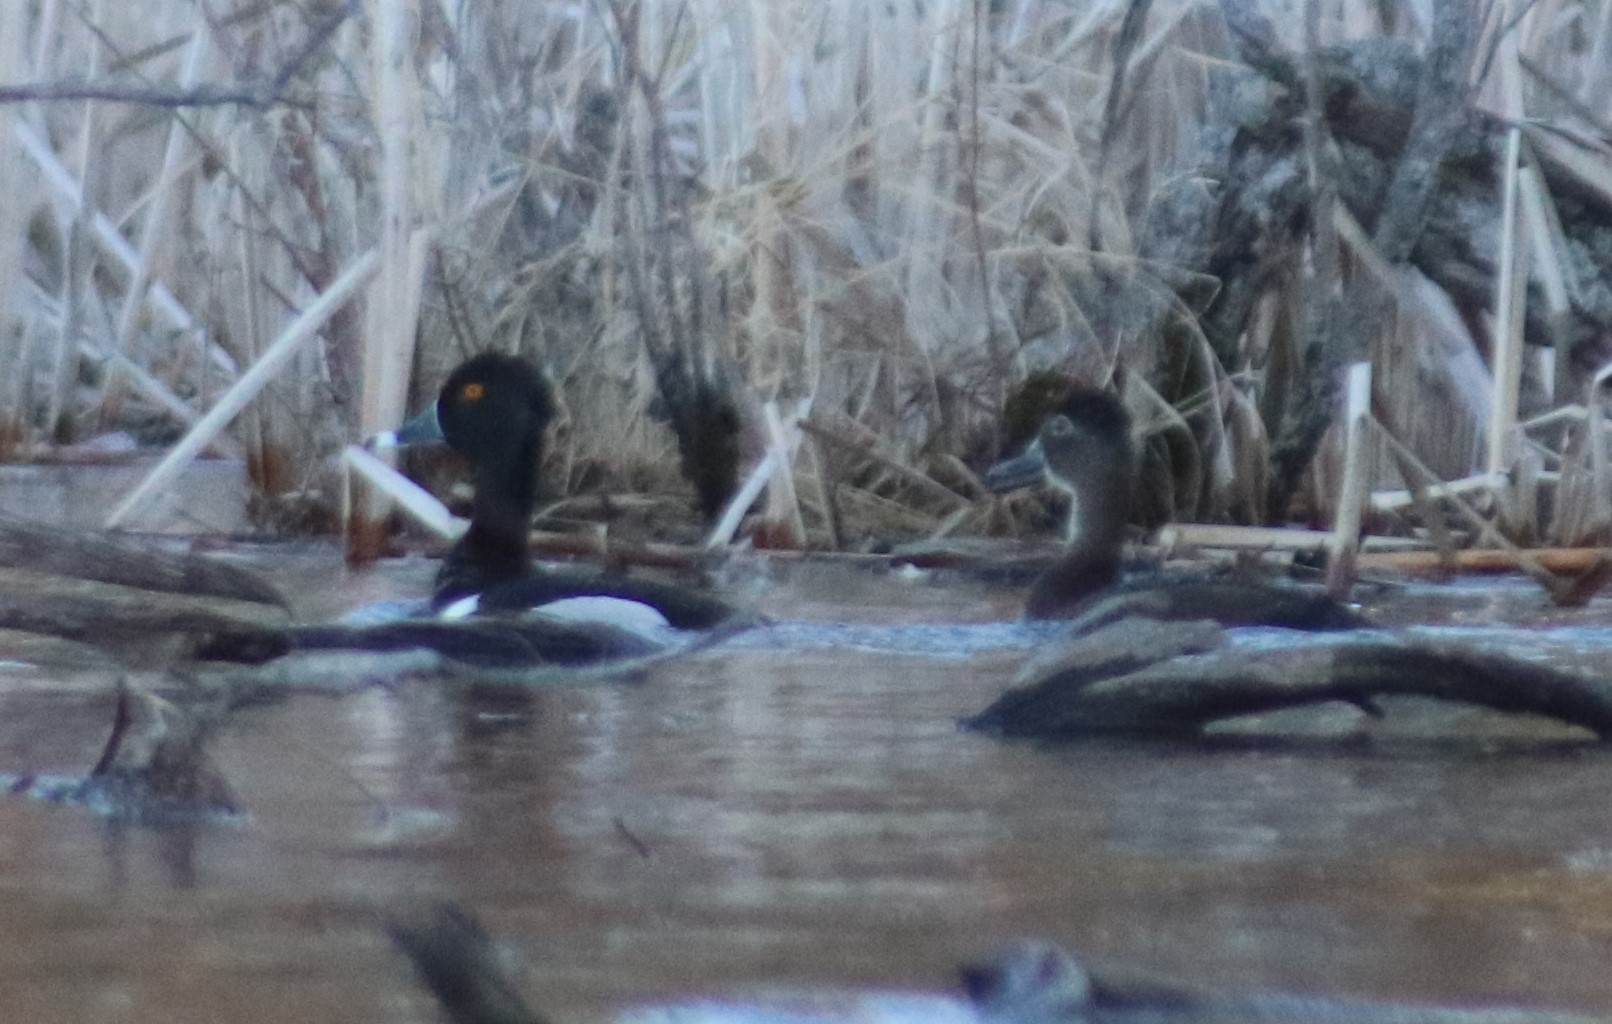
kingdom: Animalia
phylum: Chordata
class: Aves
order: Anseriformes
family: Anatidae
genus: Aythya
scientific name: Aythya collaris
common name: Ring-necked duck
